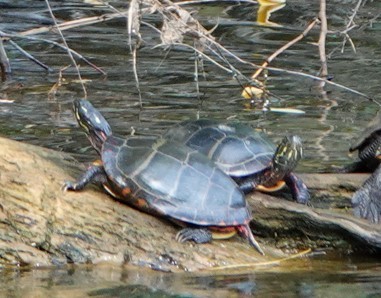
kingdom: Animalia
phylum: Chordata
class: Testudines
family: Emydidae
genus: Chrysemys
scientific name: Chrysemys picta
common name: Painted turtle
